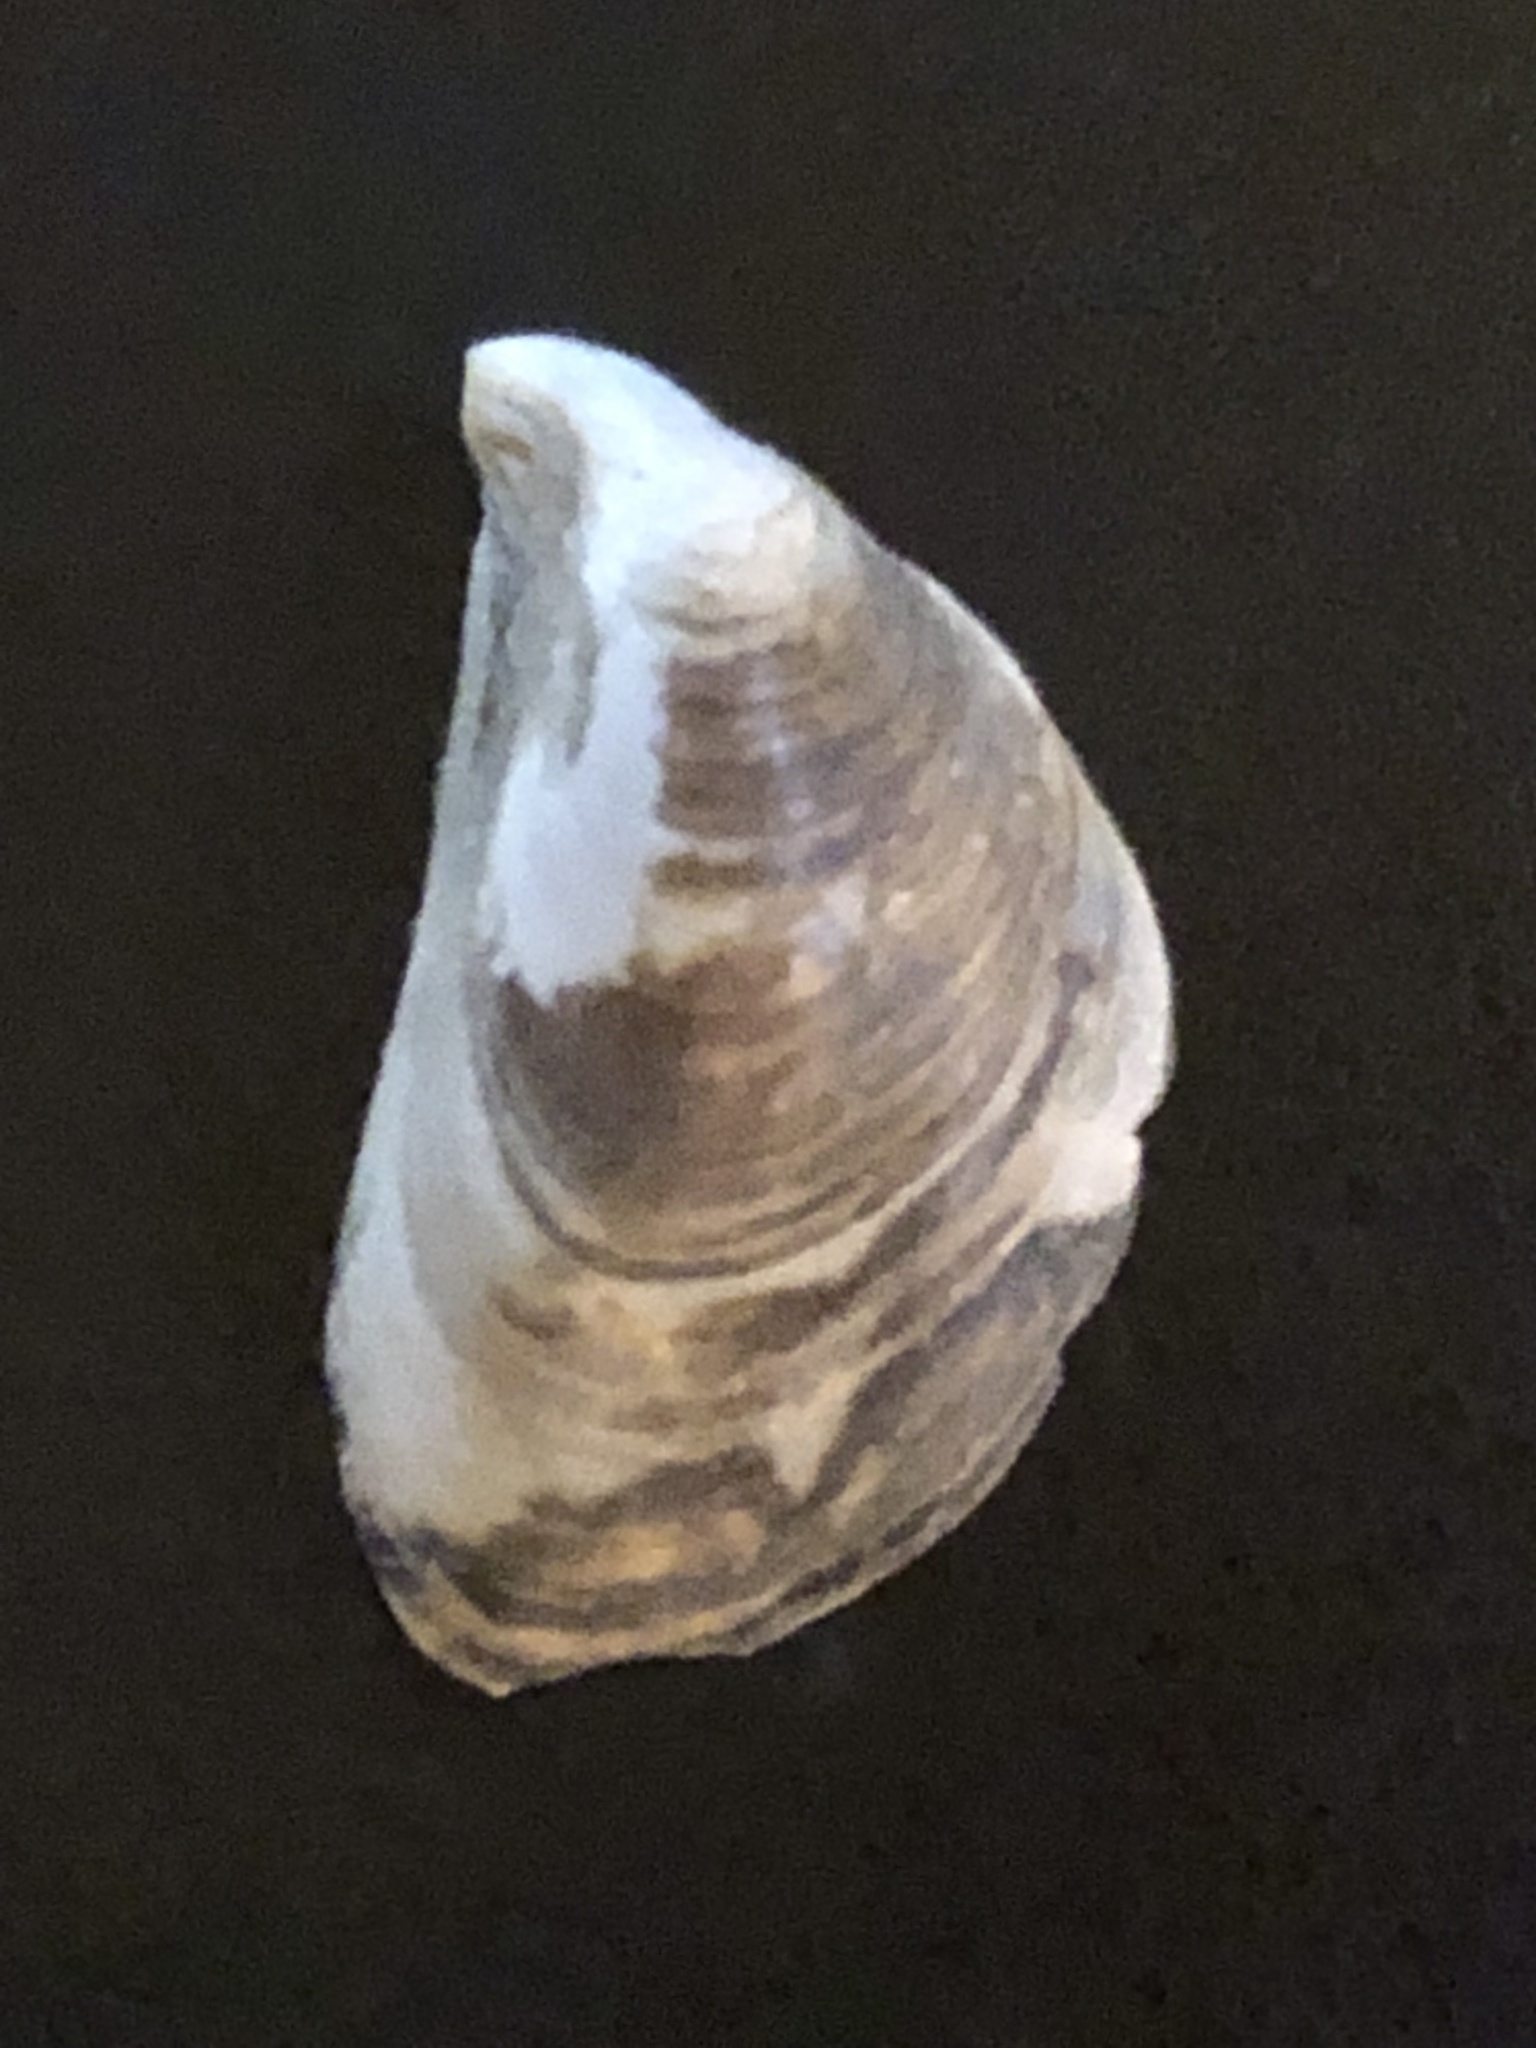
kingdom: Animalia
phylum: Mollusca
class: Bivalvia
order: Myida
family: Dreissenidae
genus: Dreissena
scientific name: Dreissena bugensis
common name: Quagga mussel
